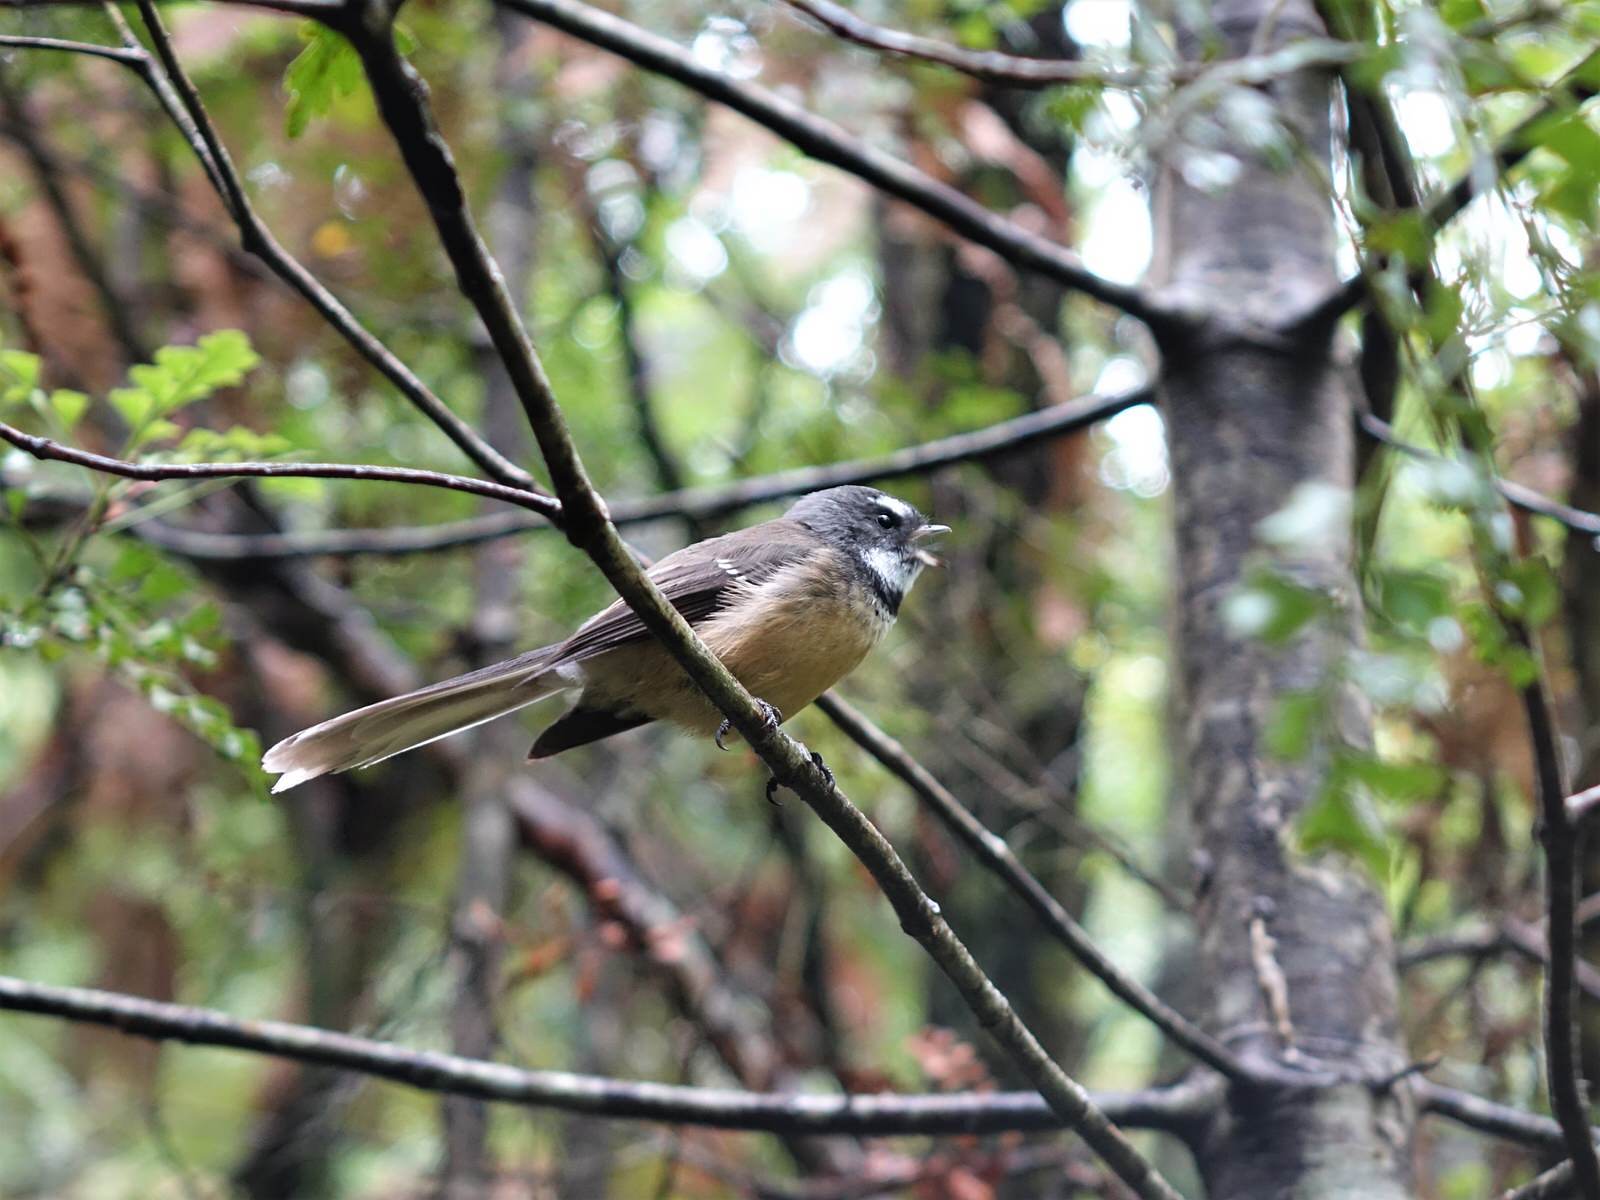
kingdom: Animalia
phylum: Chordata
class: Aves
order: Passeriformes
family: Rhipiduridae
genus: Rhipidura
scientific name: Rhipidura fuliginosa
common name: New zealand fantail
